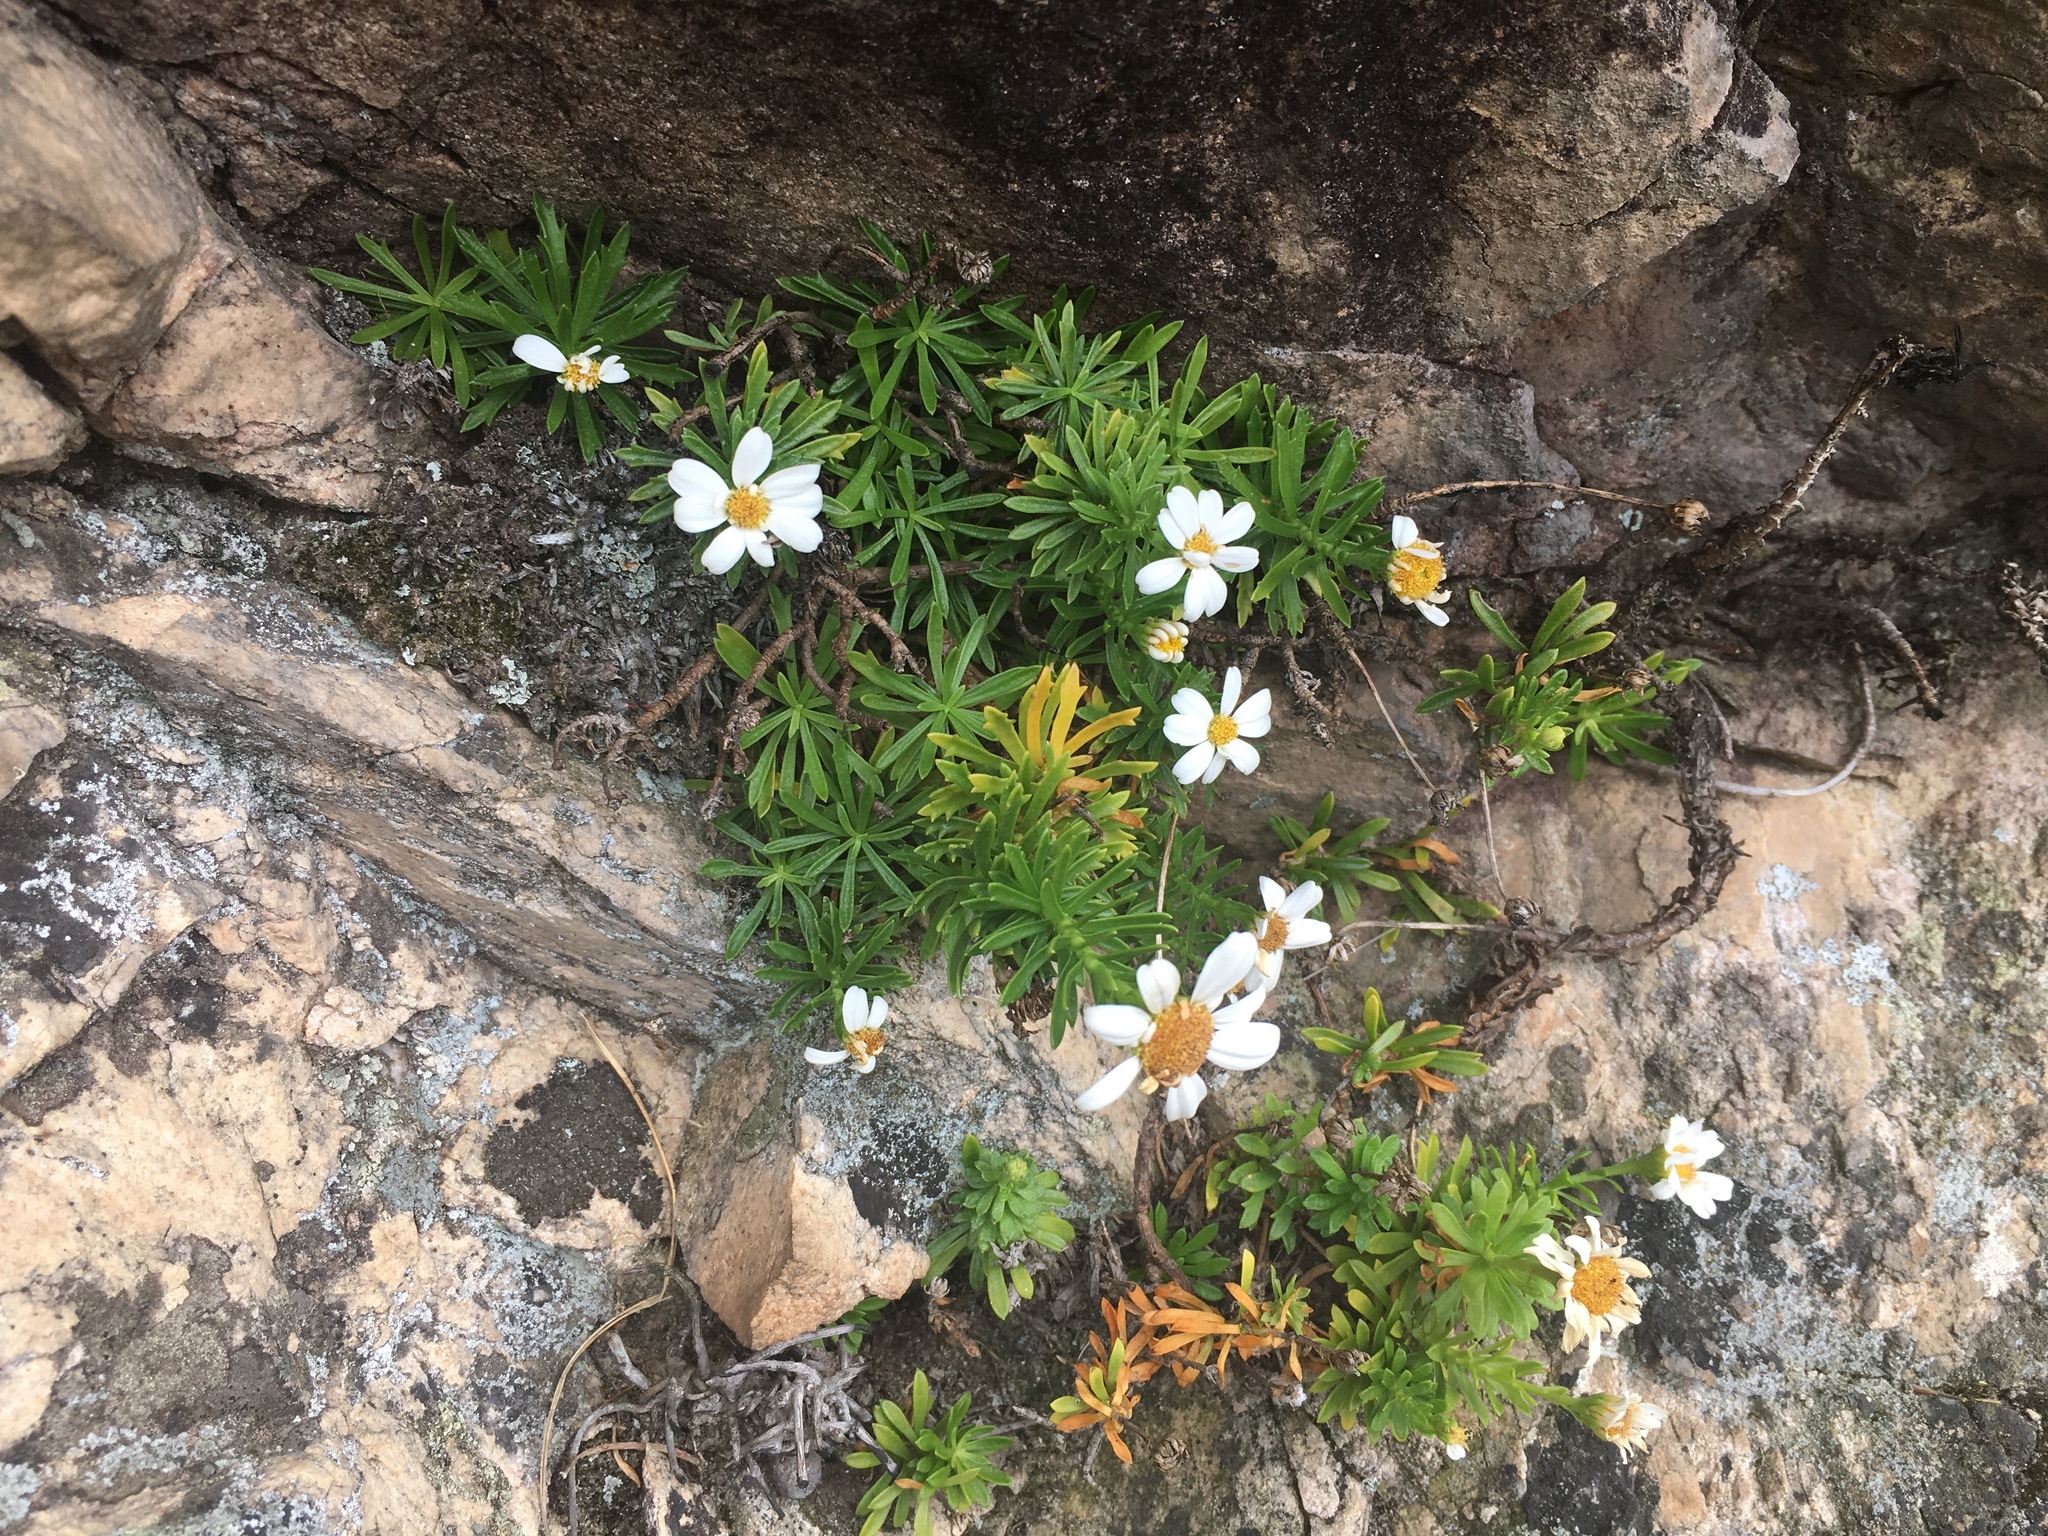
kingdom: Plantae
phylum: Tracheophyta
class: Magnoliopsida
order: Asterales
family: Asteraceae
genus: Osmitopsis
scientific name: Osmitopsis nana
